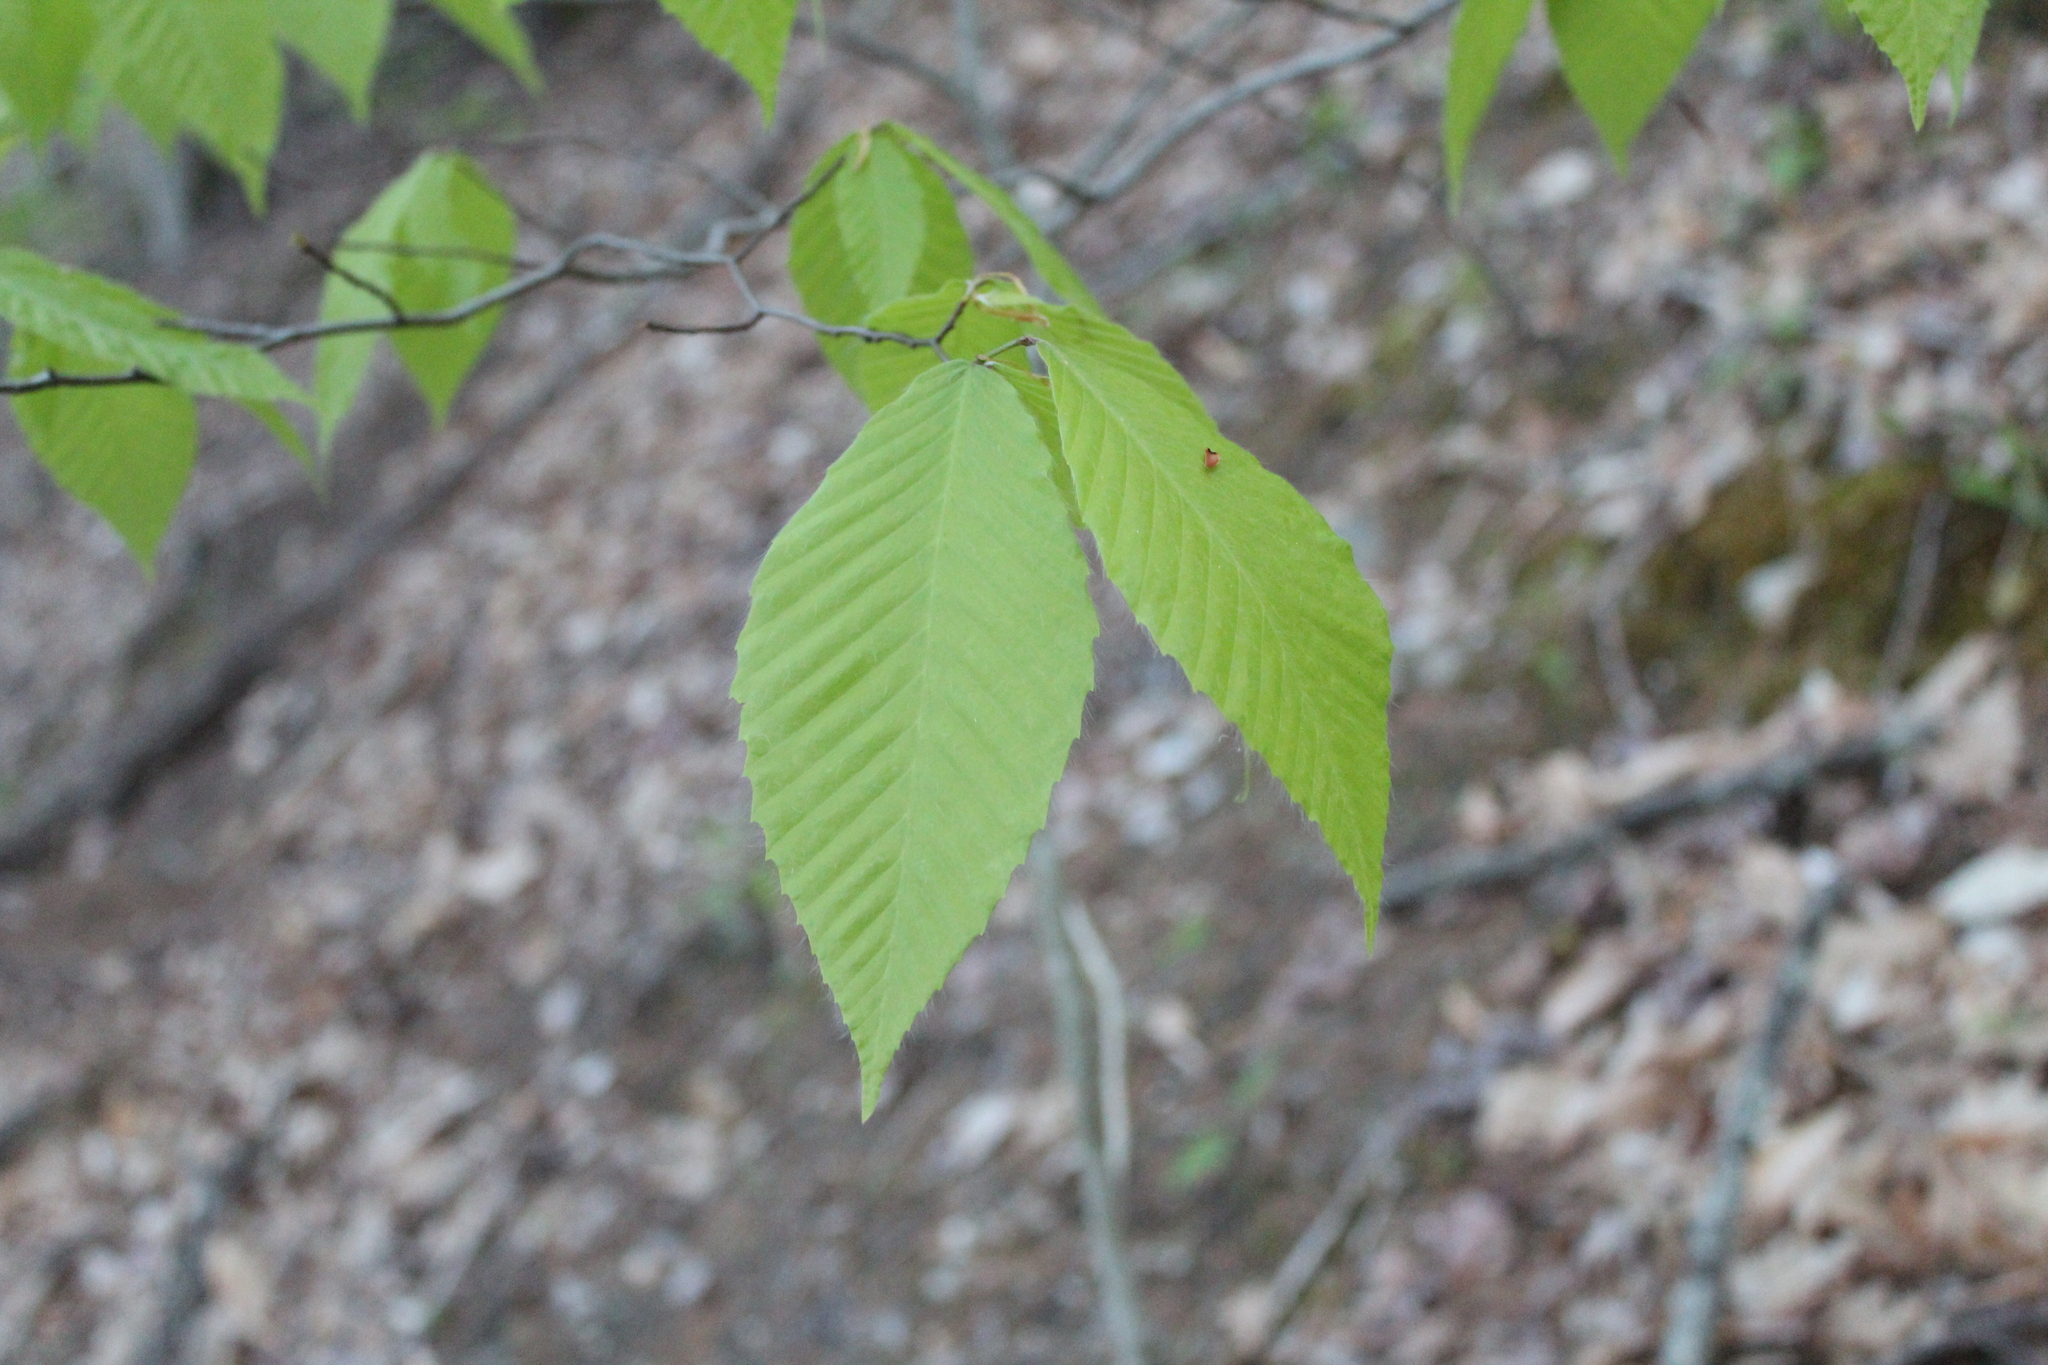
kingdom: Plantae
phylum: Tracheophyta
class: Magnoliopsida
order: Fagales
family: Fagaceae
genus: Fagus
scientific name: Fagus grandifolia
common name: American beech
